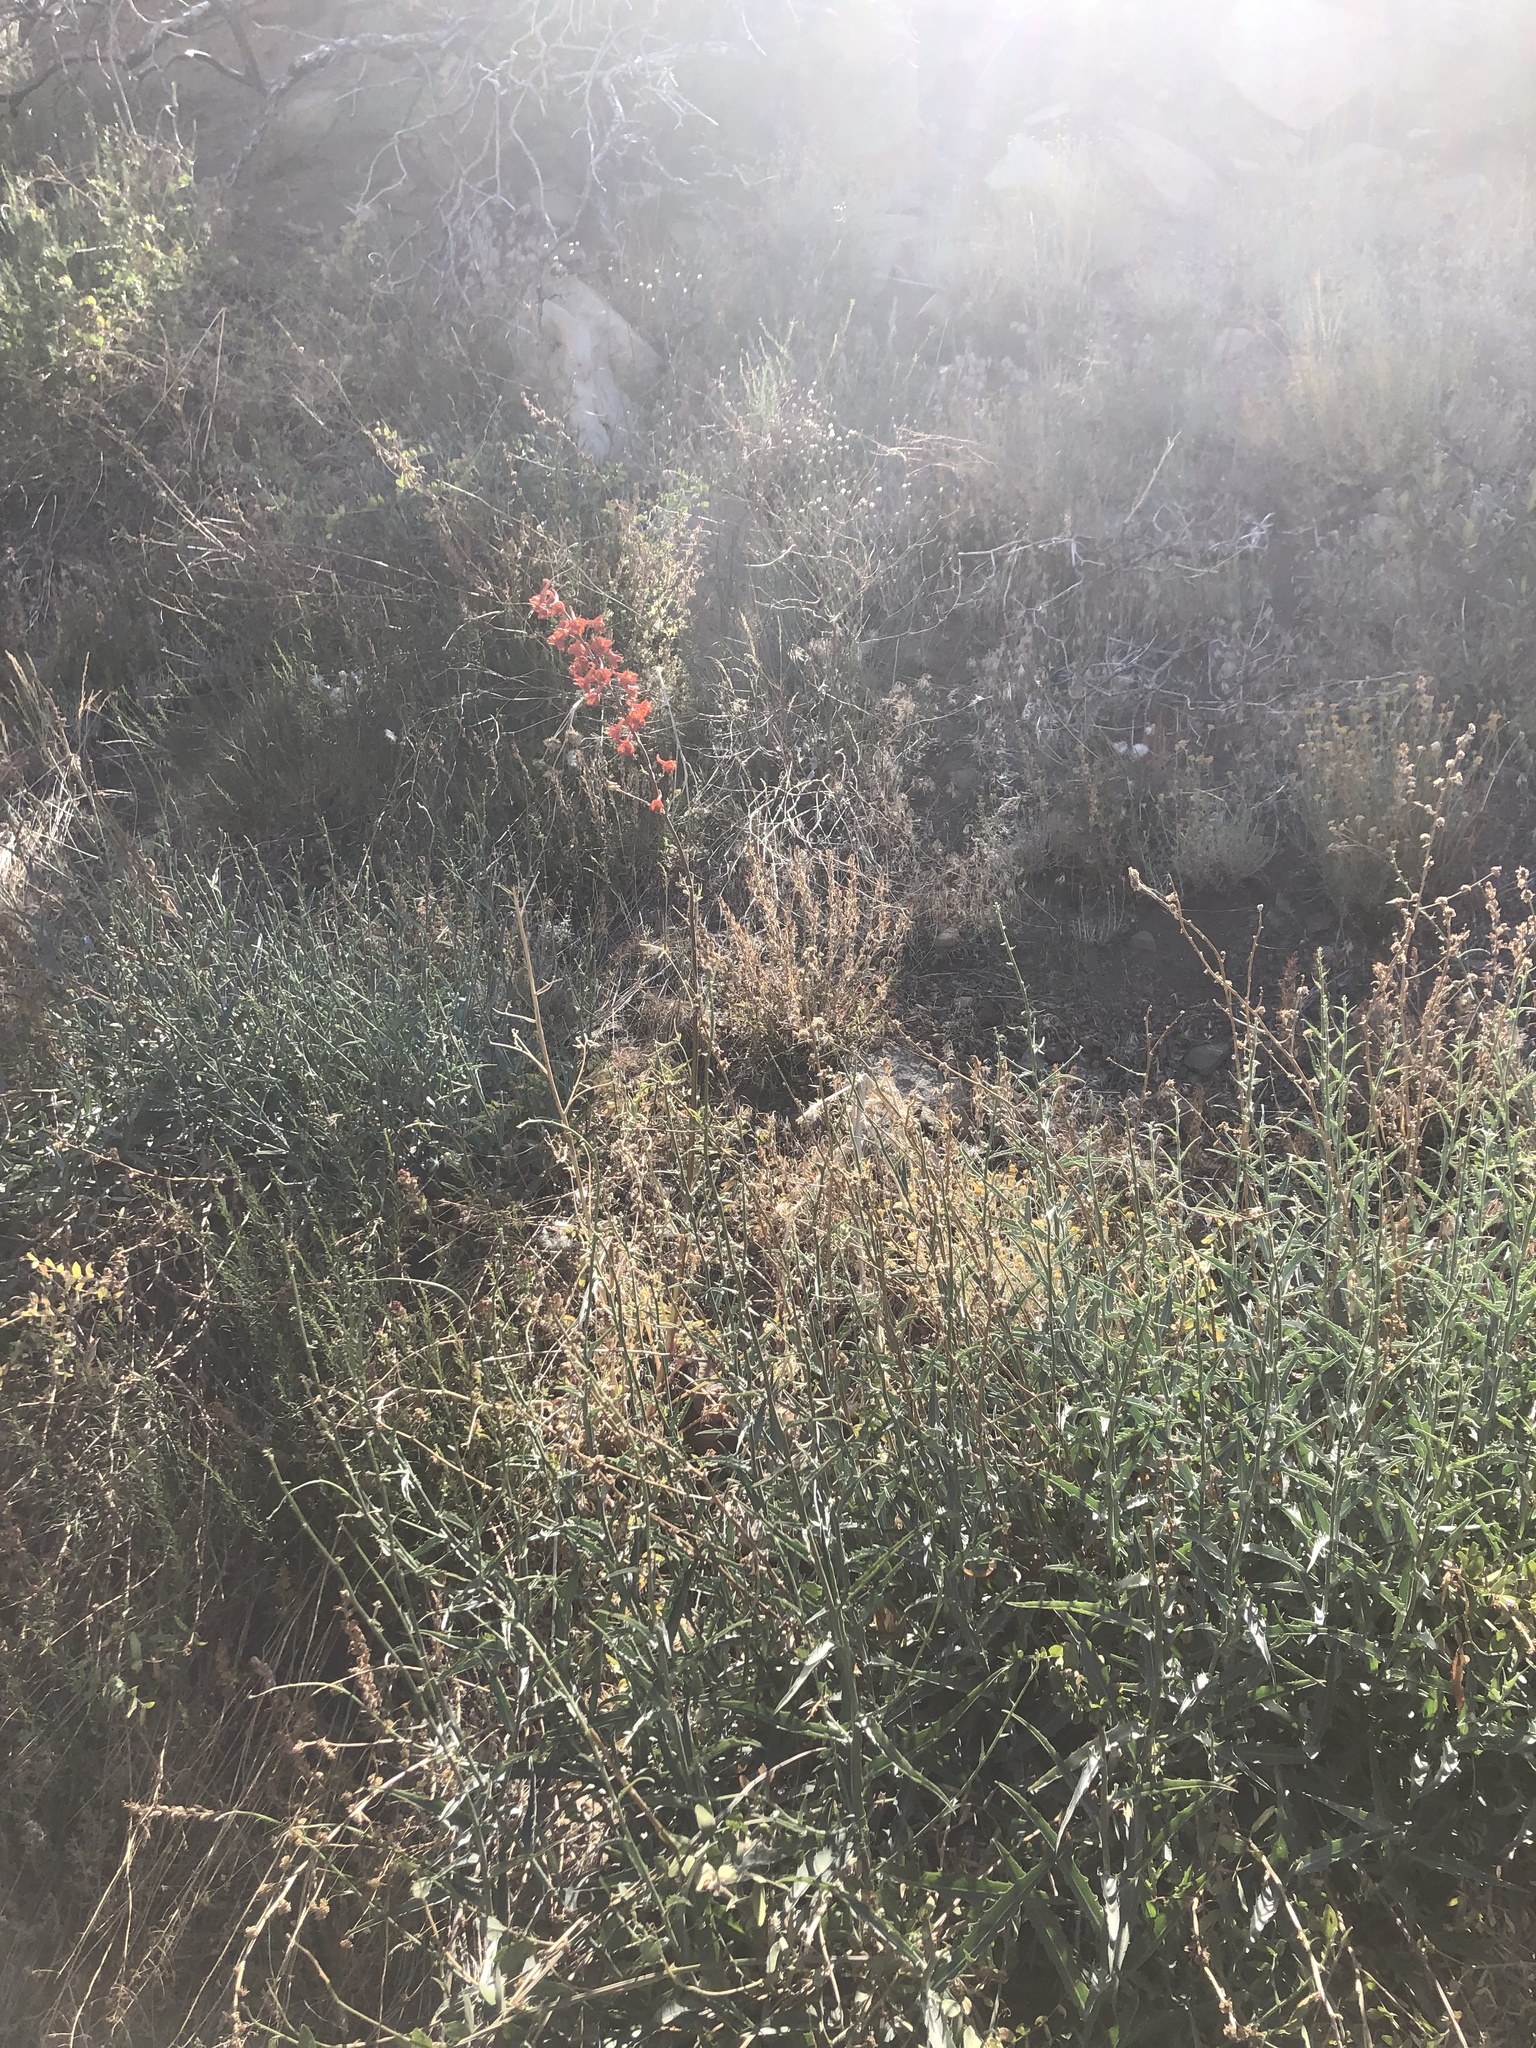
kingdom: Plantae
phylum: Tracheophyta
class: Magnoliopsida
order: Ranunculales
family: Ranunculaceae
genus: Delphinium
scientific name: Delphinium cardinale
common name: Scarlet larkspur
